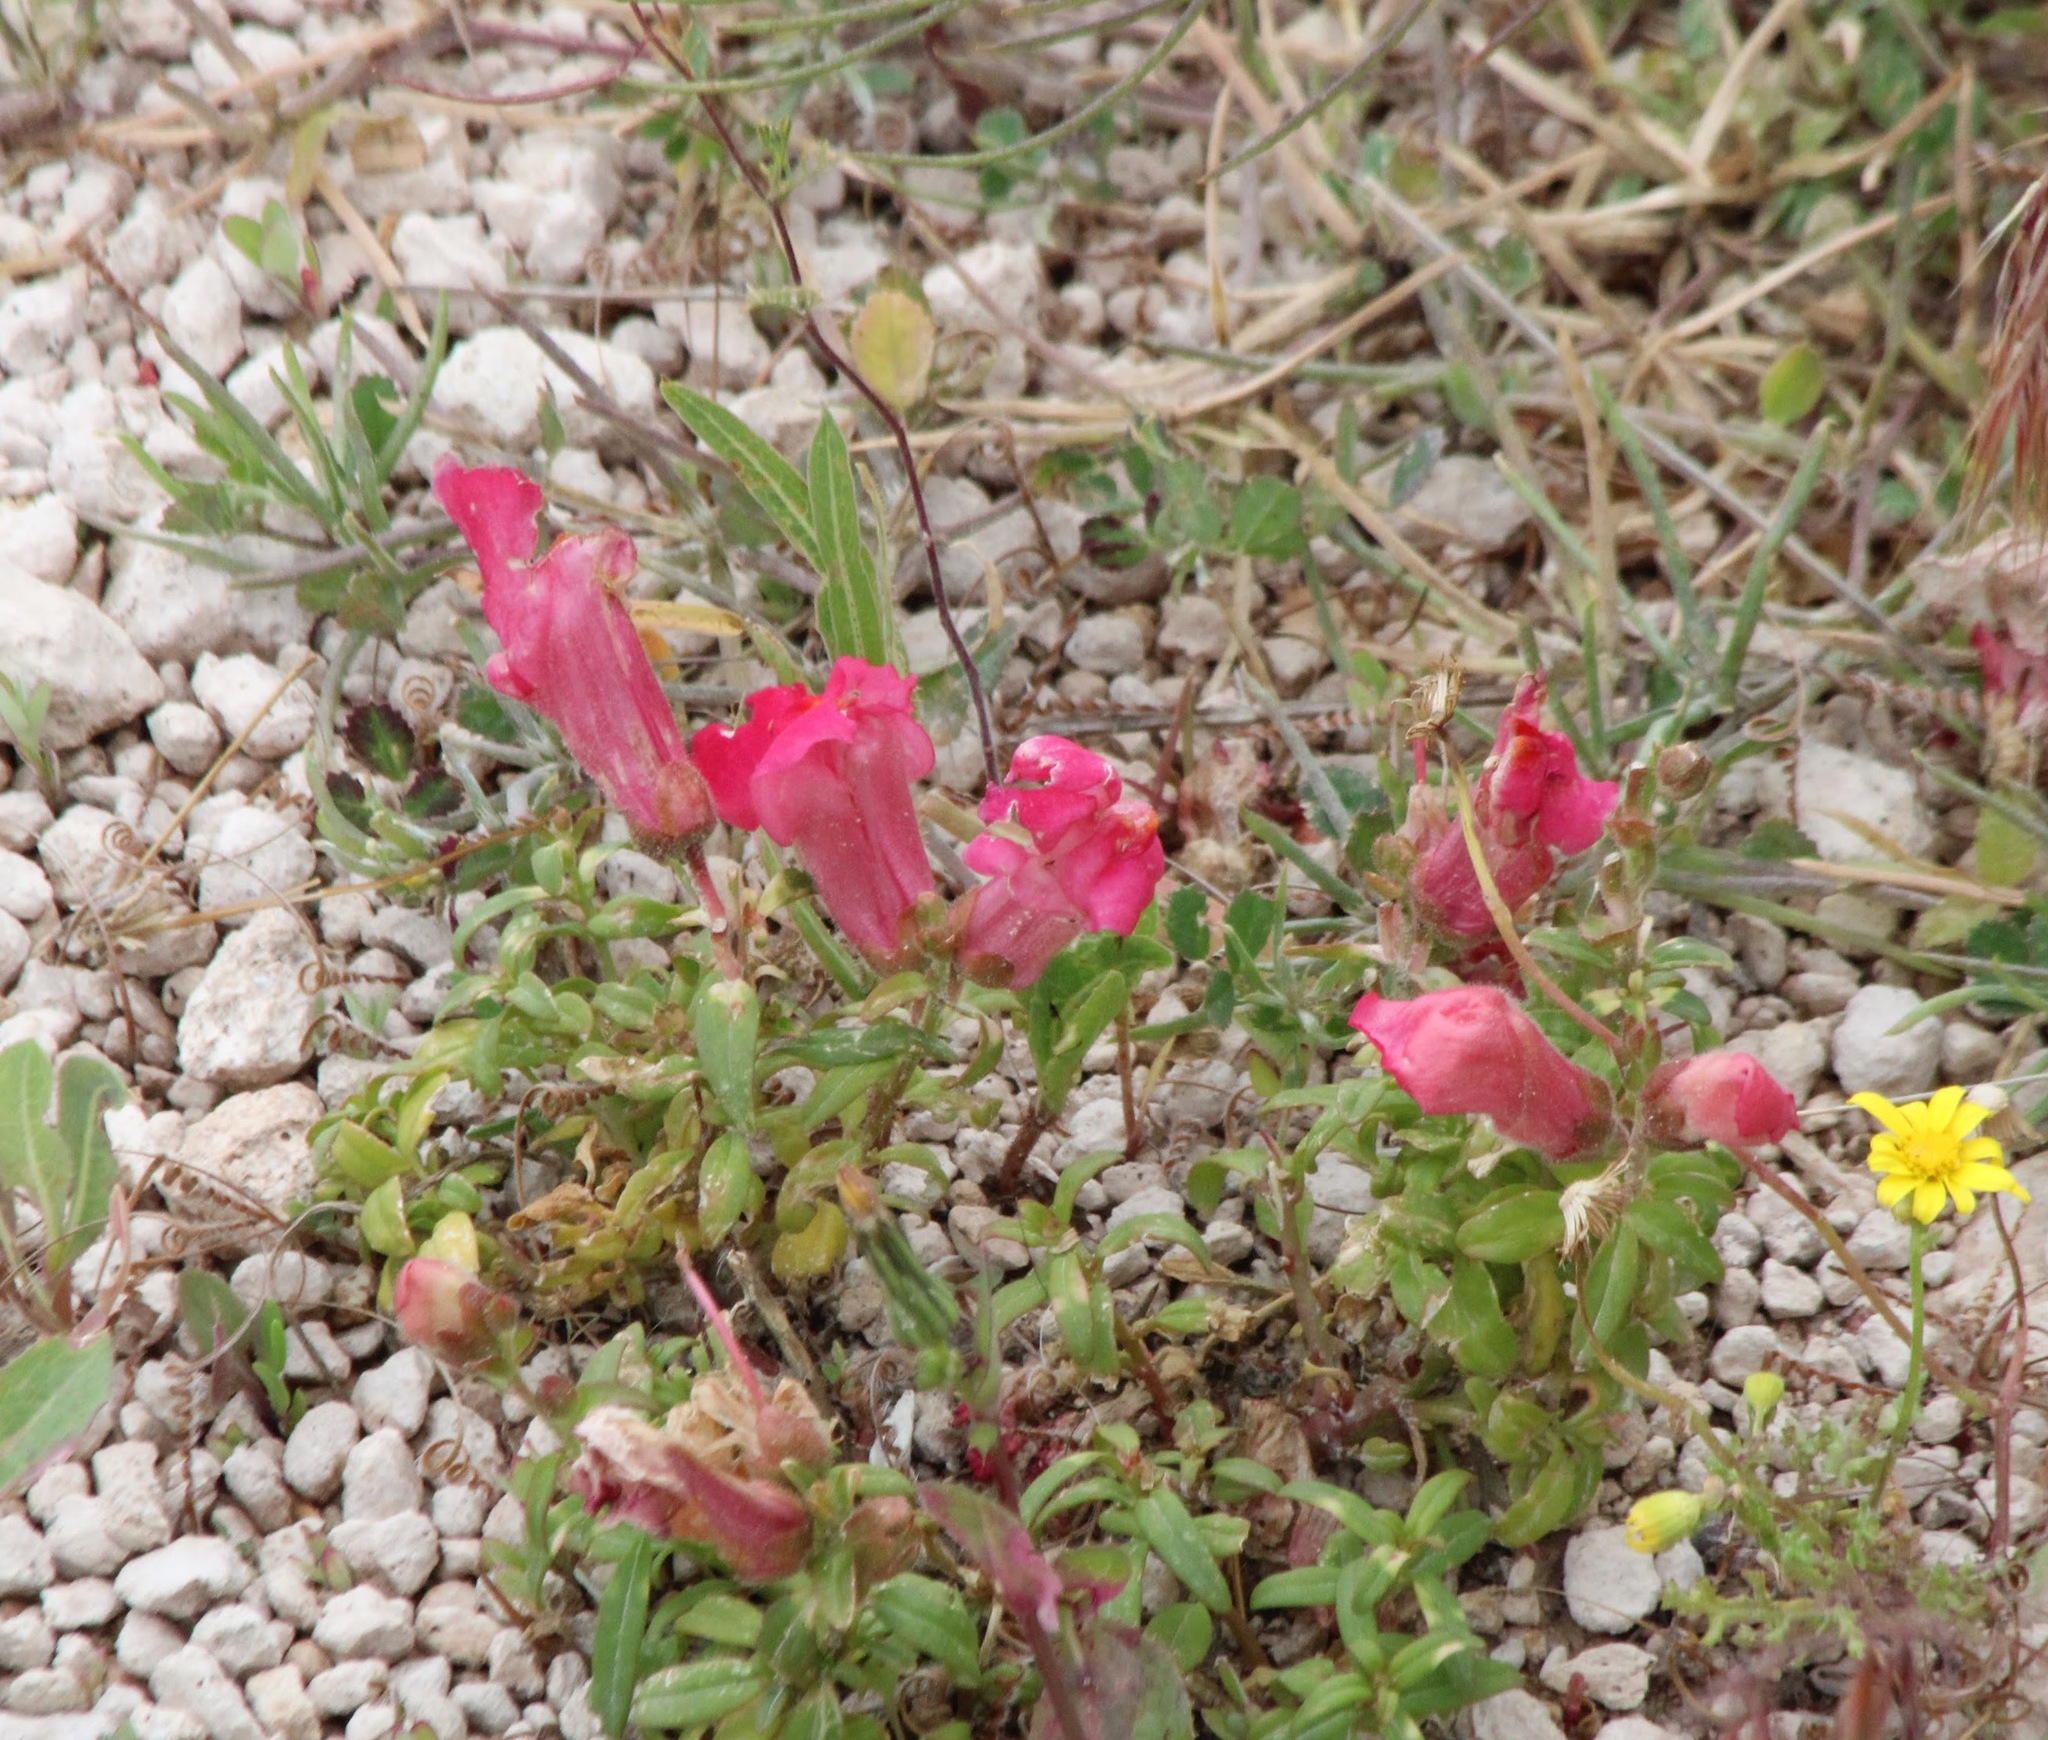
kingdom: Plantae
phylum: Tracheophyta
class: Magnoliopsida
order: Lamiales
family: Plantaginaceae
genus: Antirrhinum
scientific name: Antirrhinum majus
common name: Snapdragon
